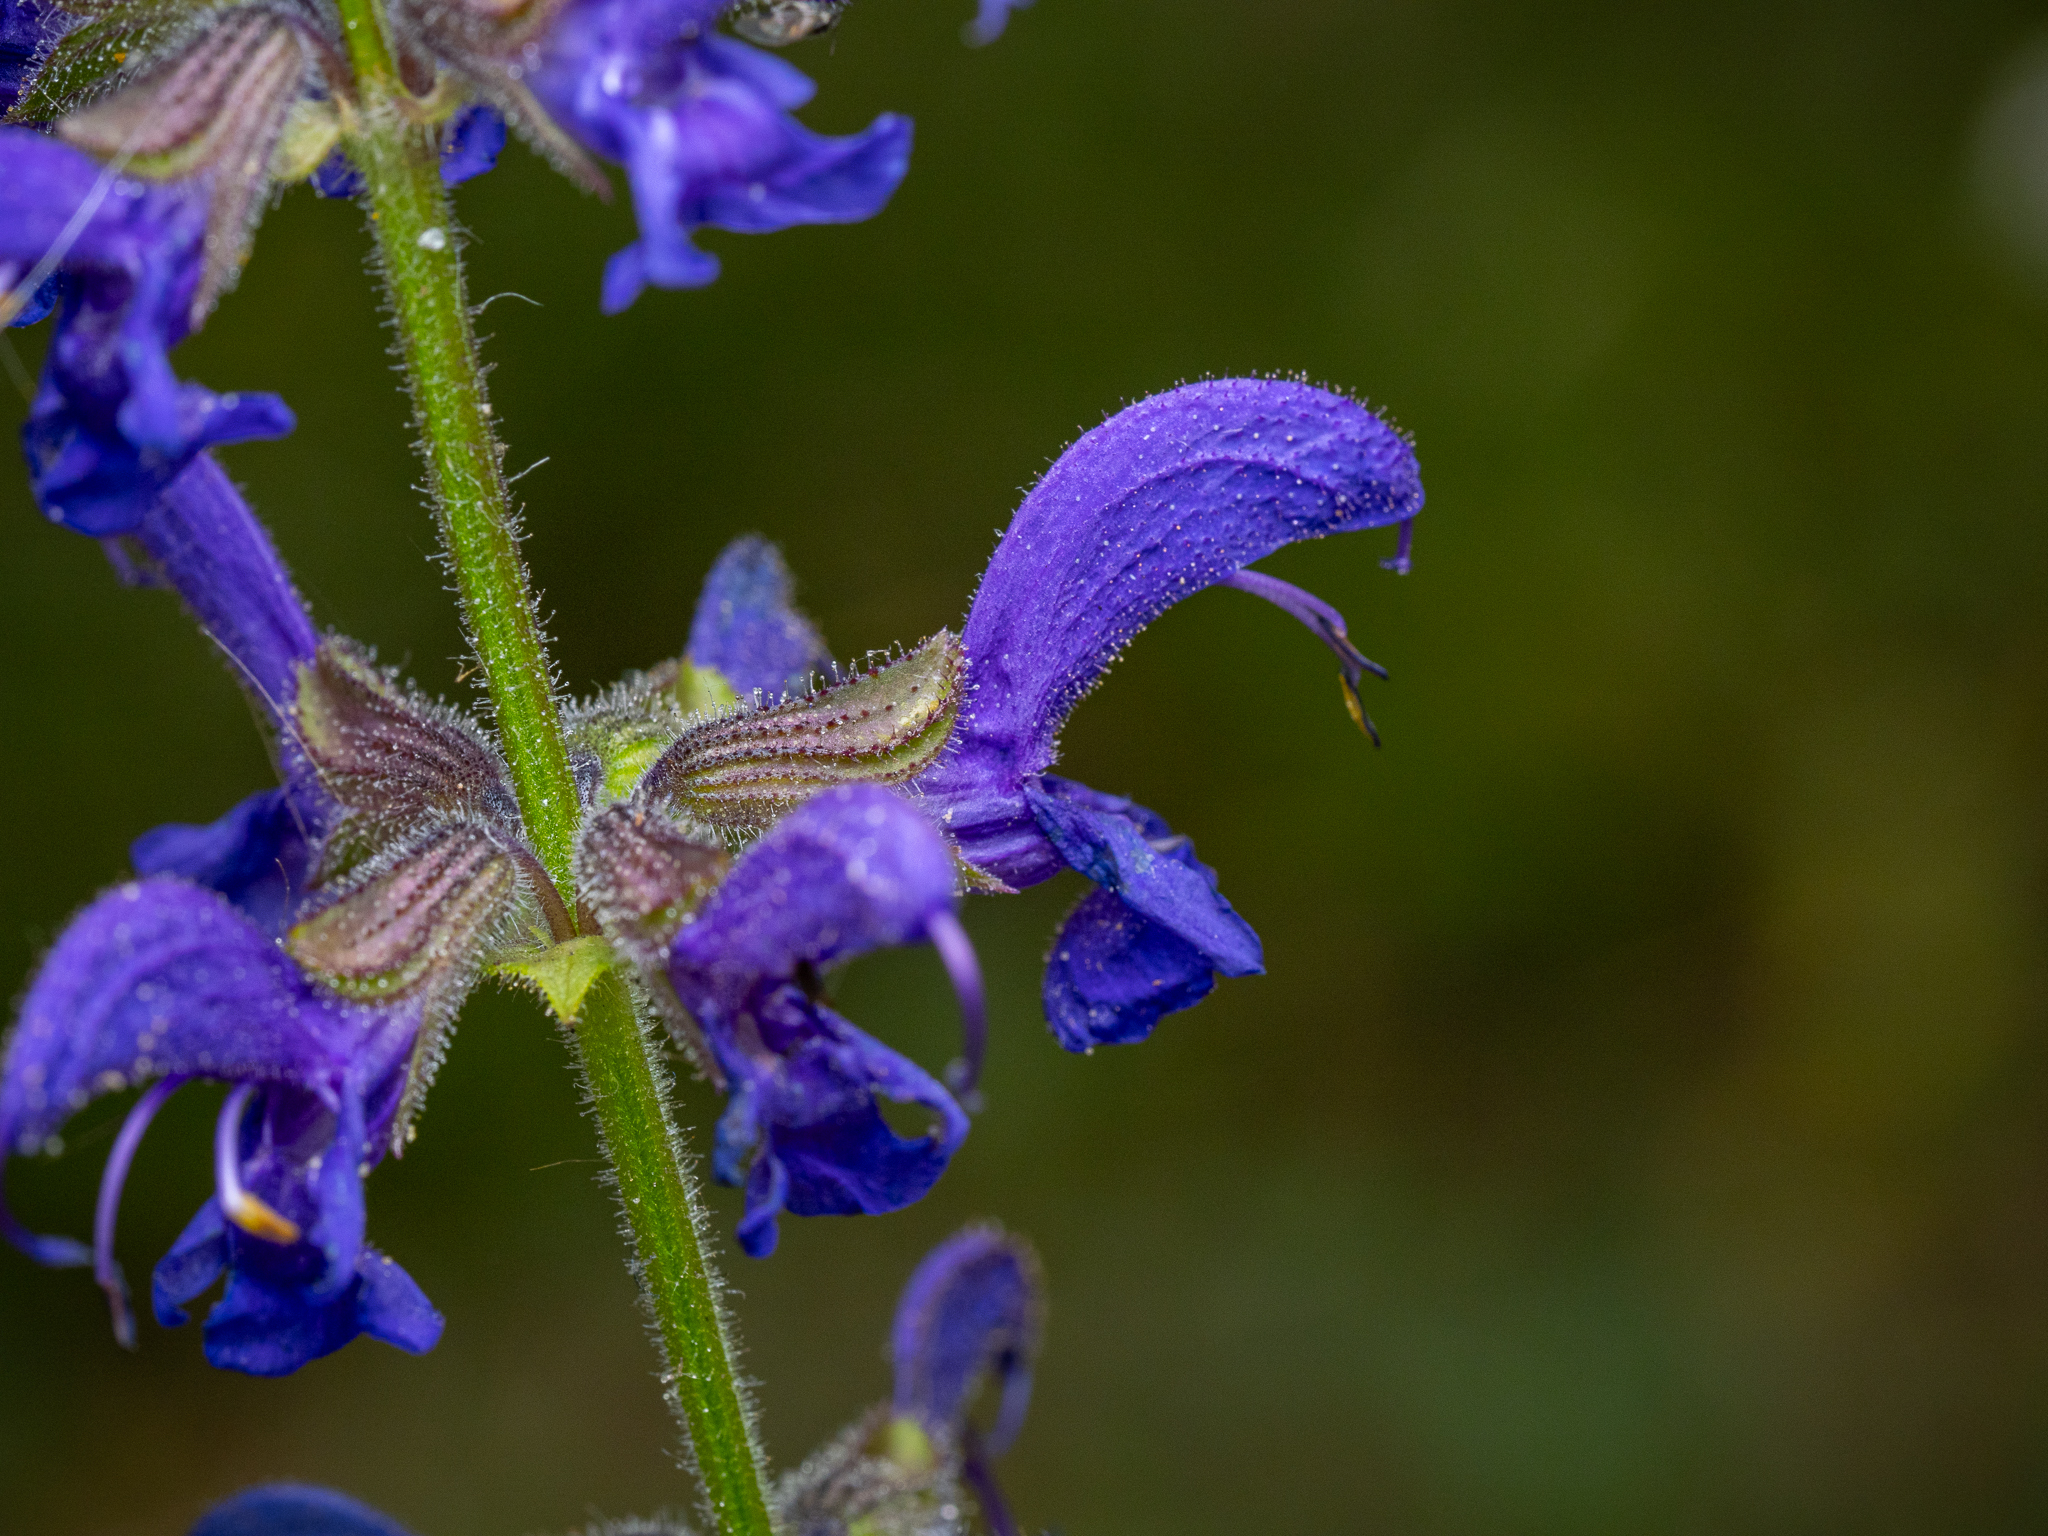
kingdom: Plantae
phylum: Tracheophyta
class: Magnoliopsida
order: Lamiales
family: Lamiaceae
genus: Salvia
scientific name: Salvia pratensis
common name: Meadow sage
